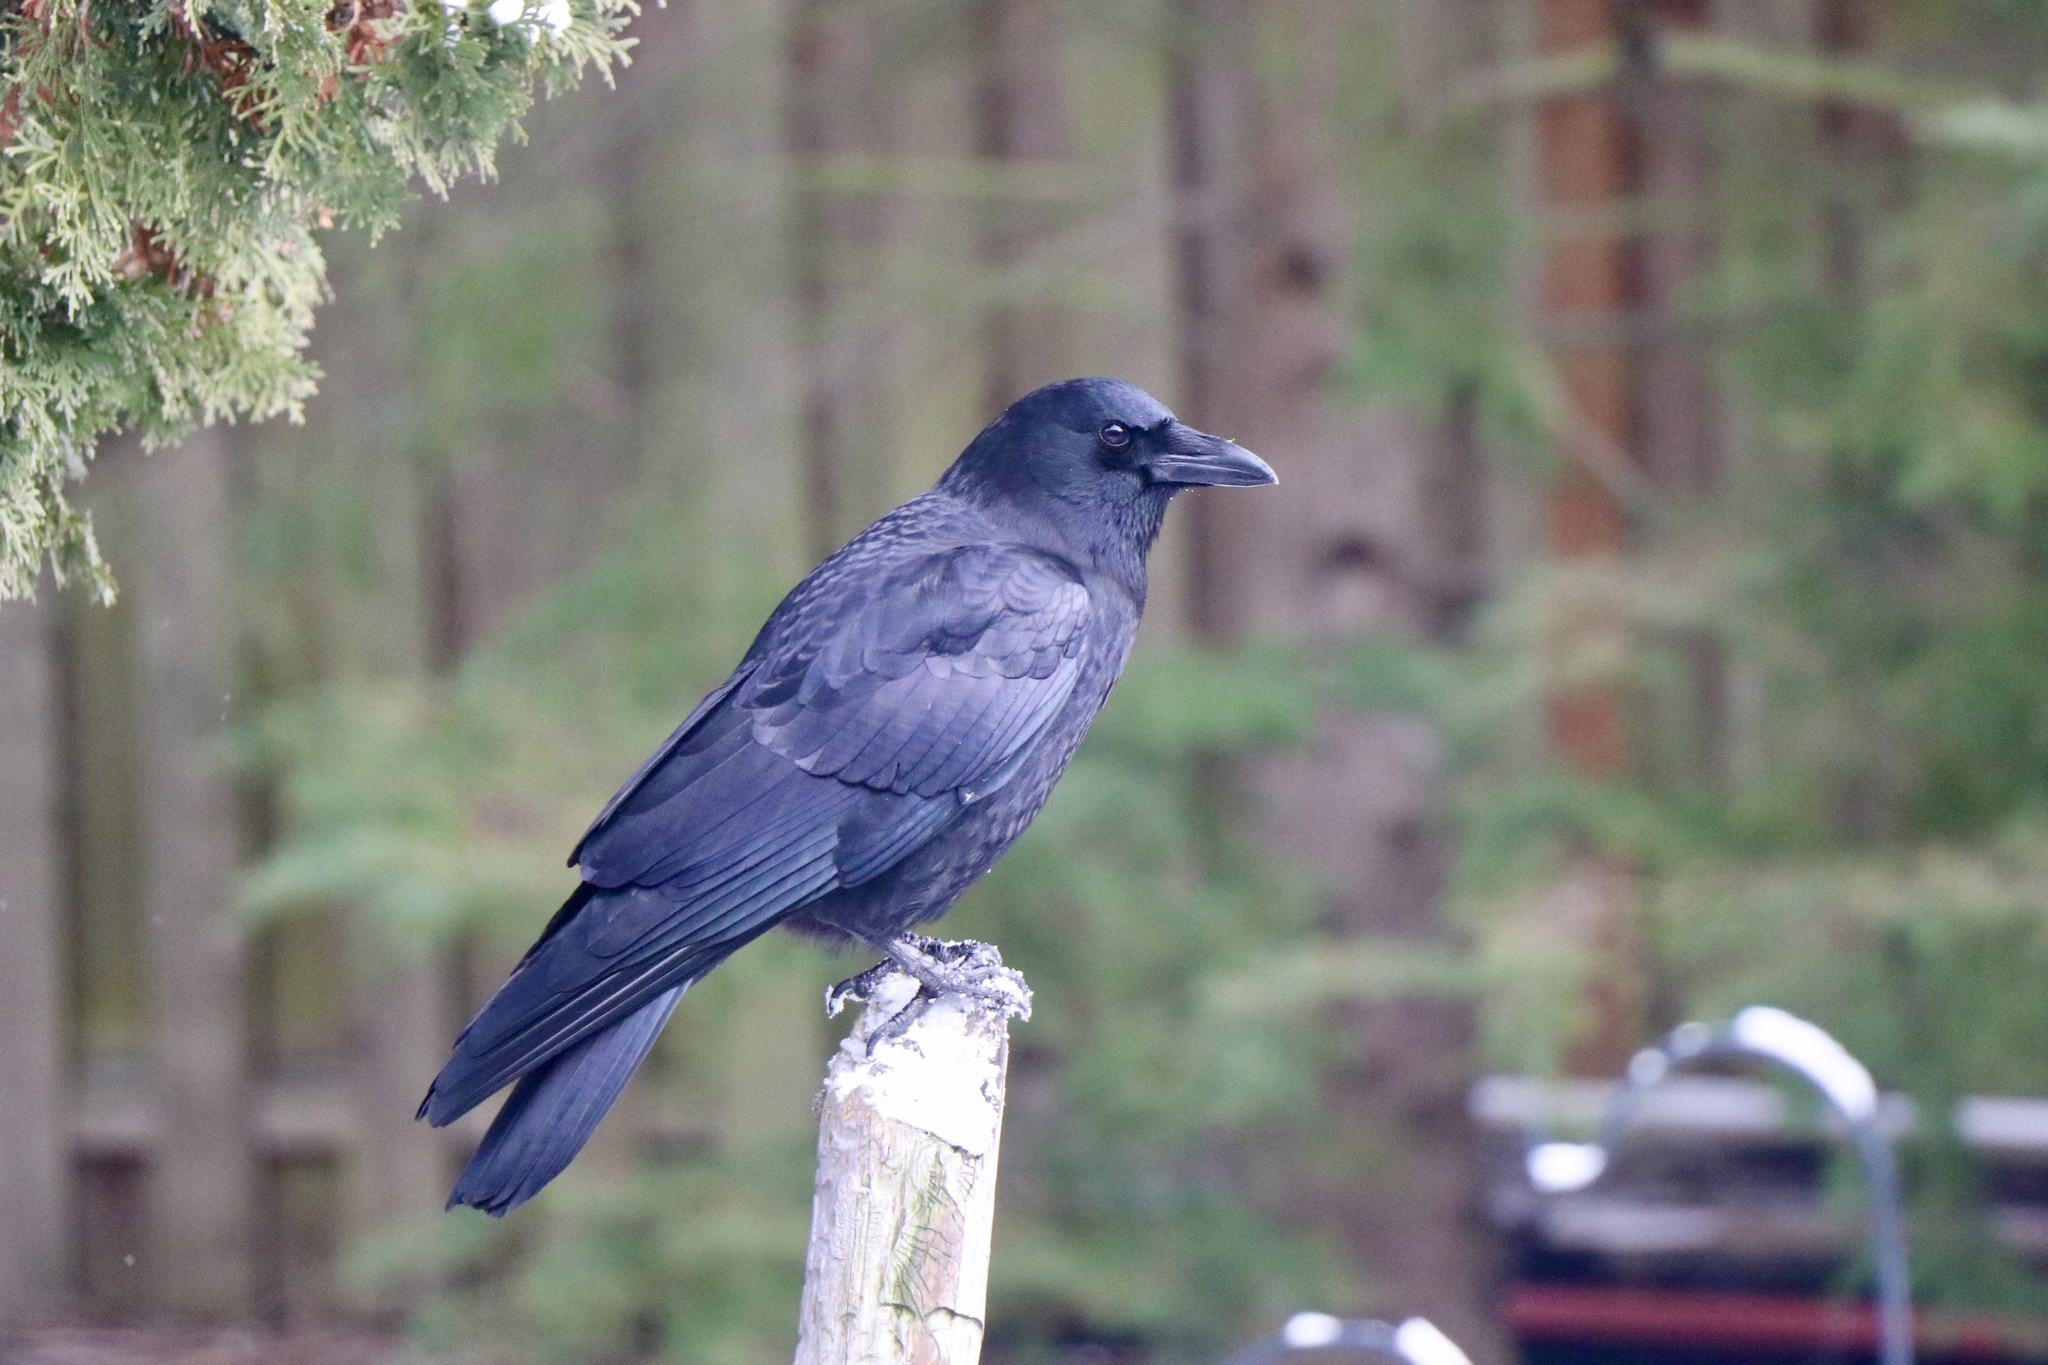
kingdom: Animalia
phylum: Chordata
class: Aves
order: Passeriformes
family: Corvidae
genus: Corvus
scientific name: Corvus brachyrhynchos
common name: American crow
